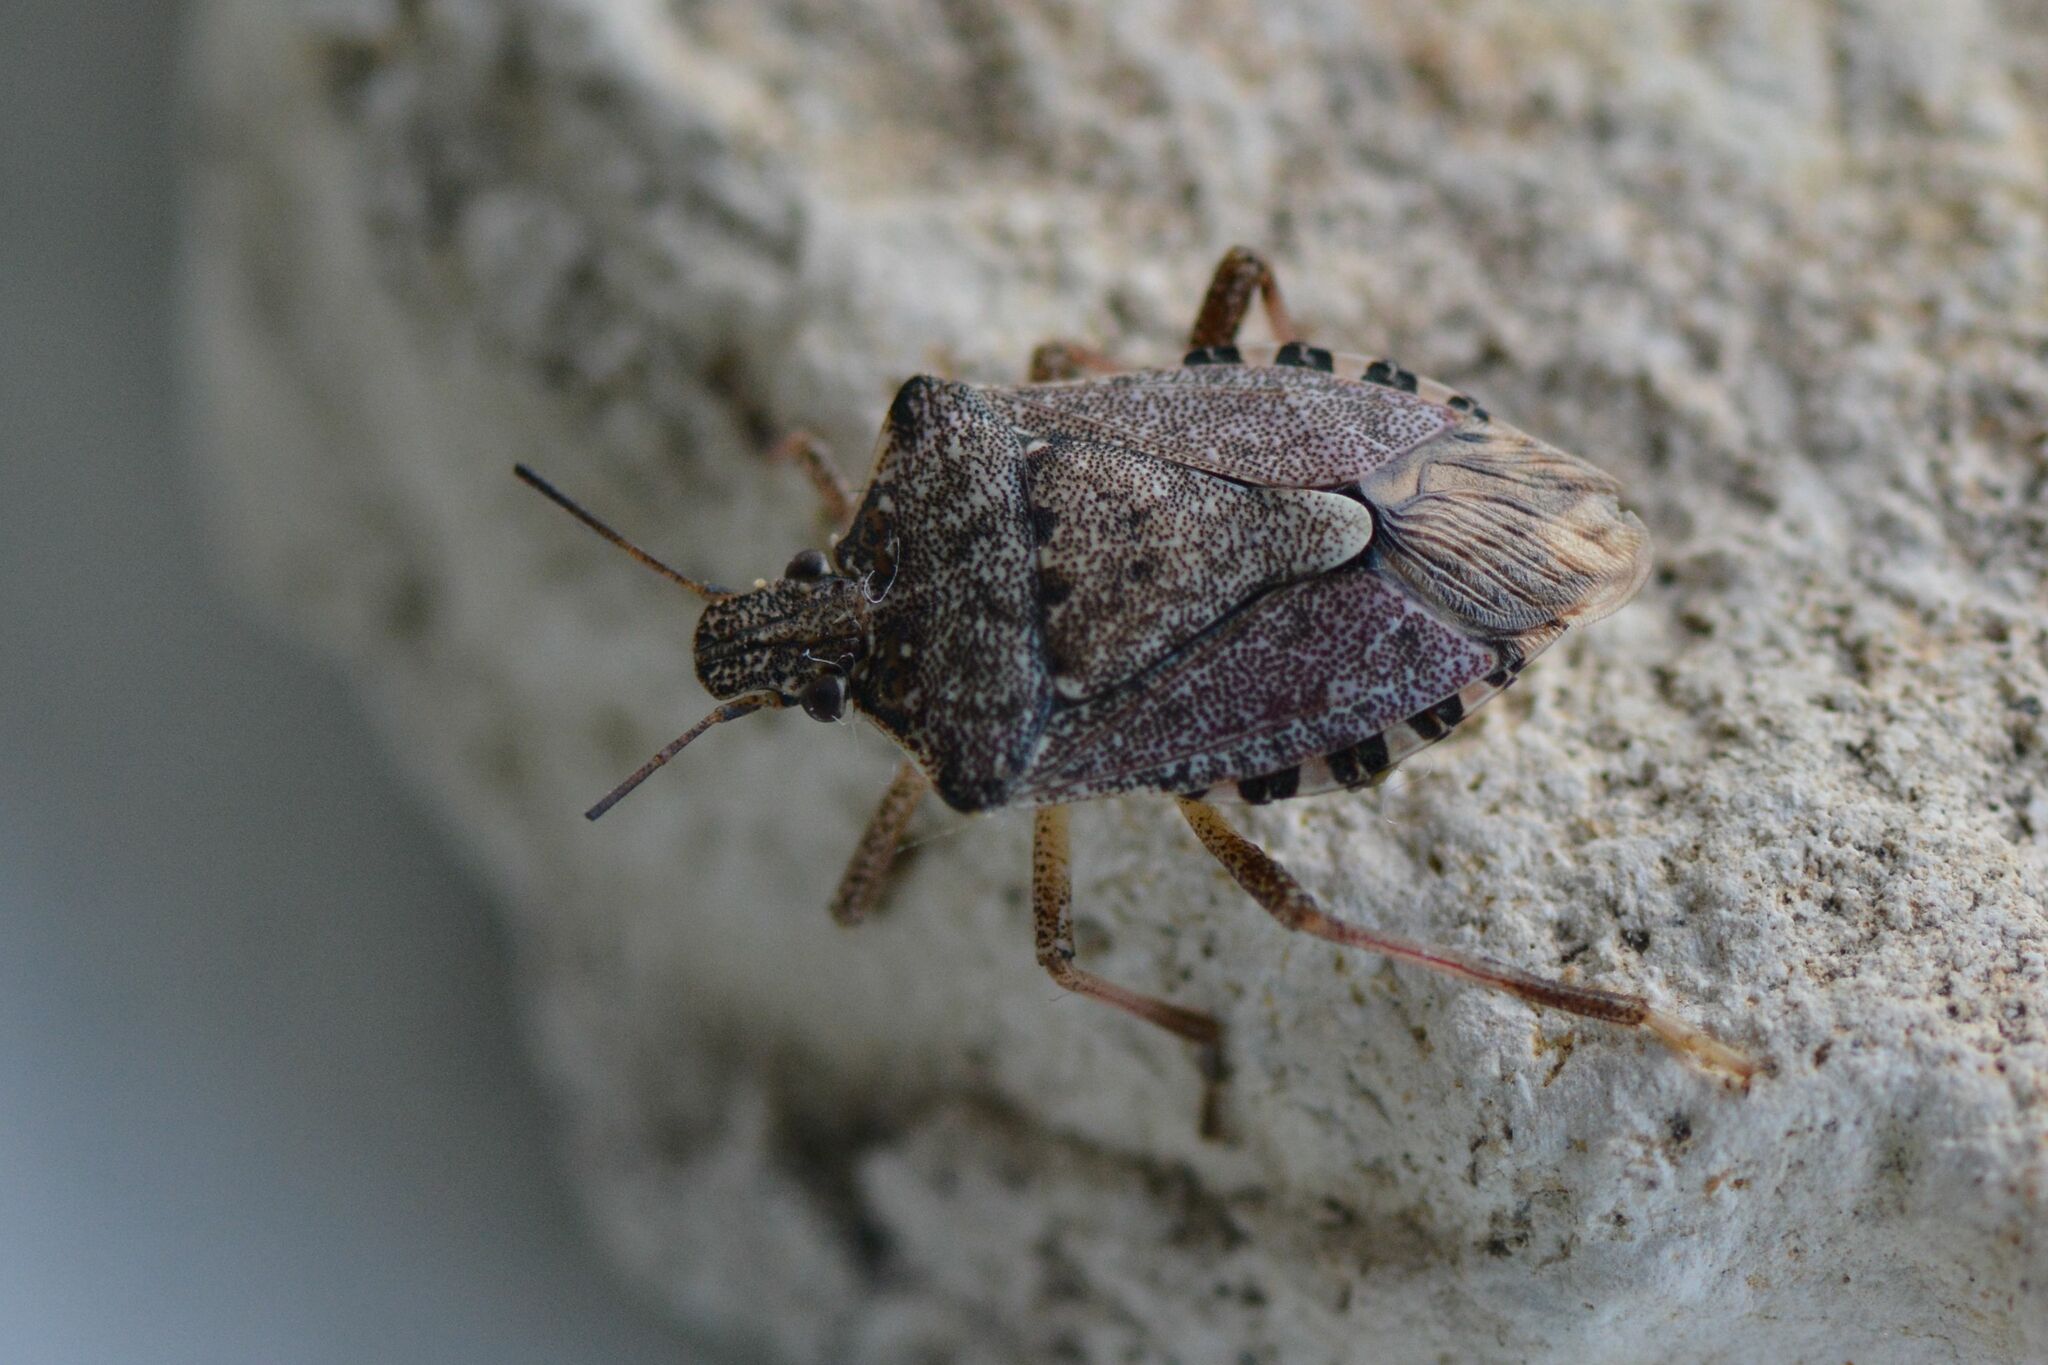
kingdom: Animalia
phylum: Arthropoda
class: Insecta
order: Hemiptera
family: Pentatomidae
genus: Halyomorpha
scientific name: Halyomorpha halys
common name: Brown marmorated stink bug
